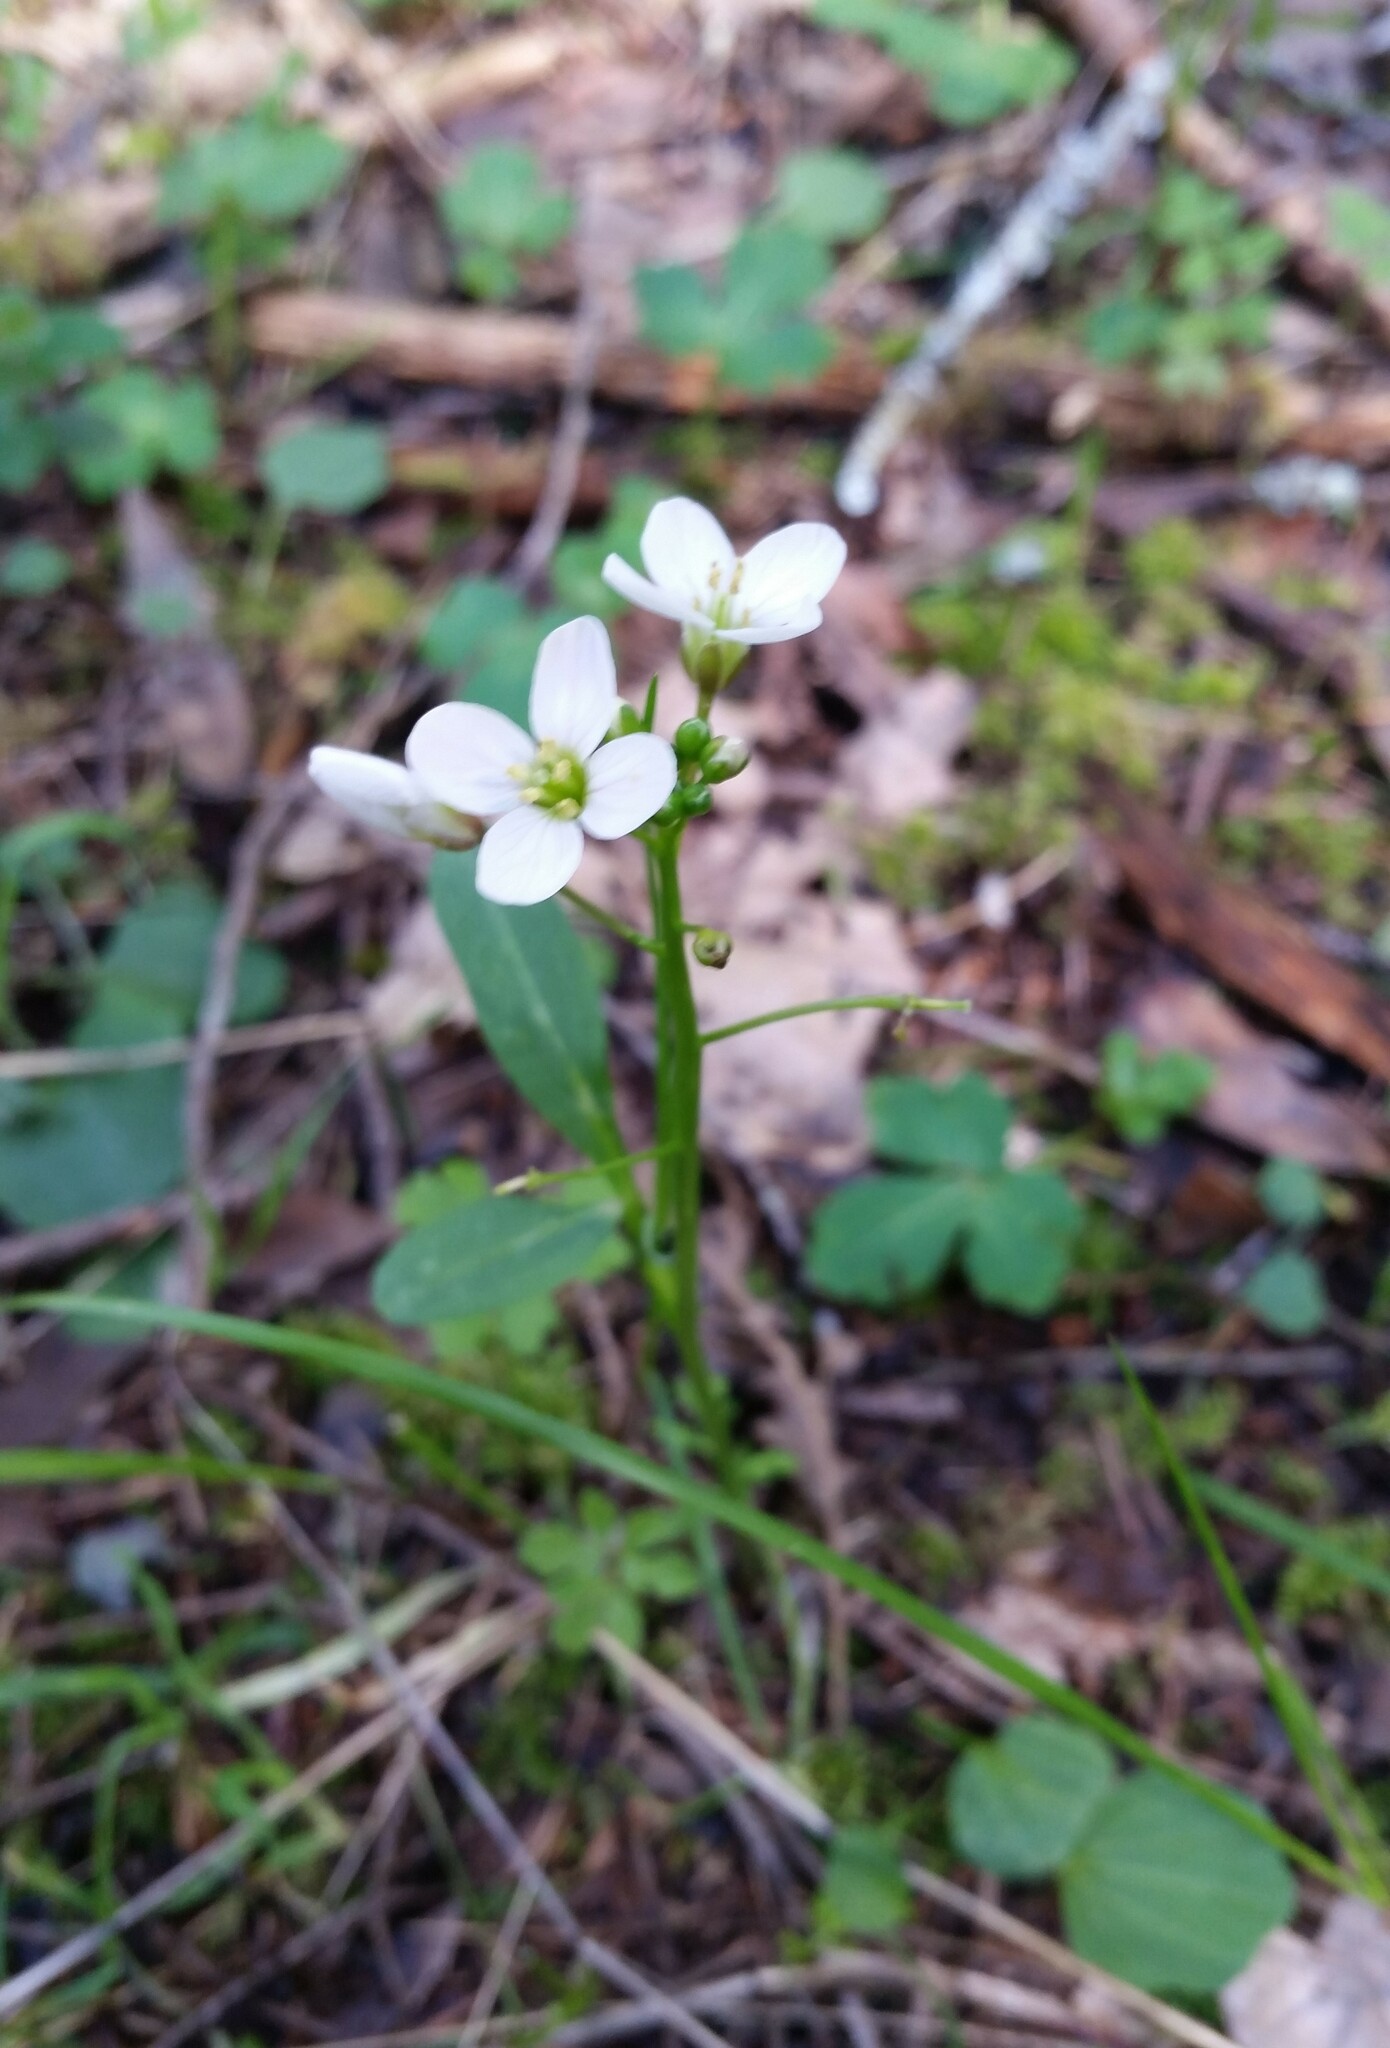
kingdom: Plantae
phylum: Tracheophyta
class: Magnoliopsida
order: Brassicales
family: Brassicaceae
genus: Cardamine
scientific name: Cardamine californica
